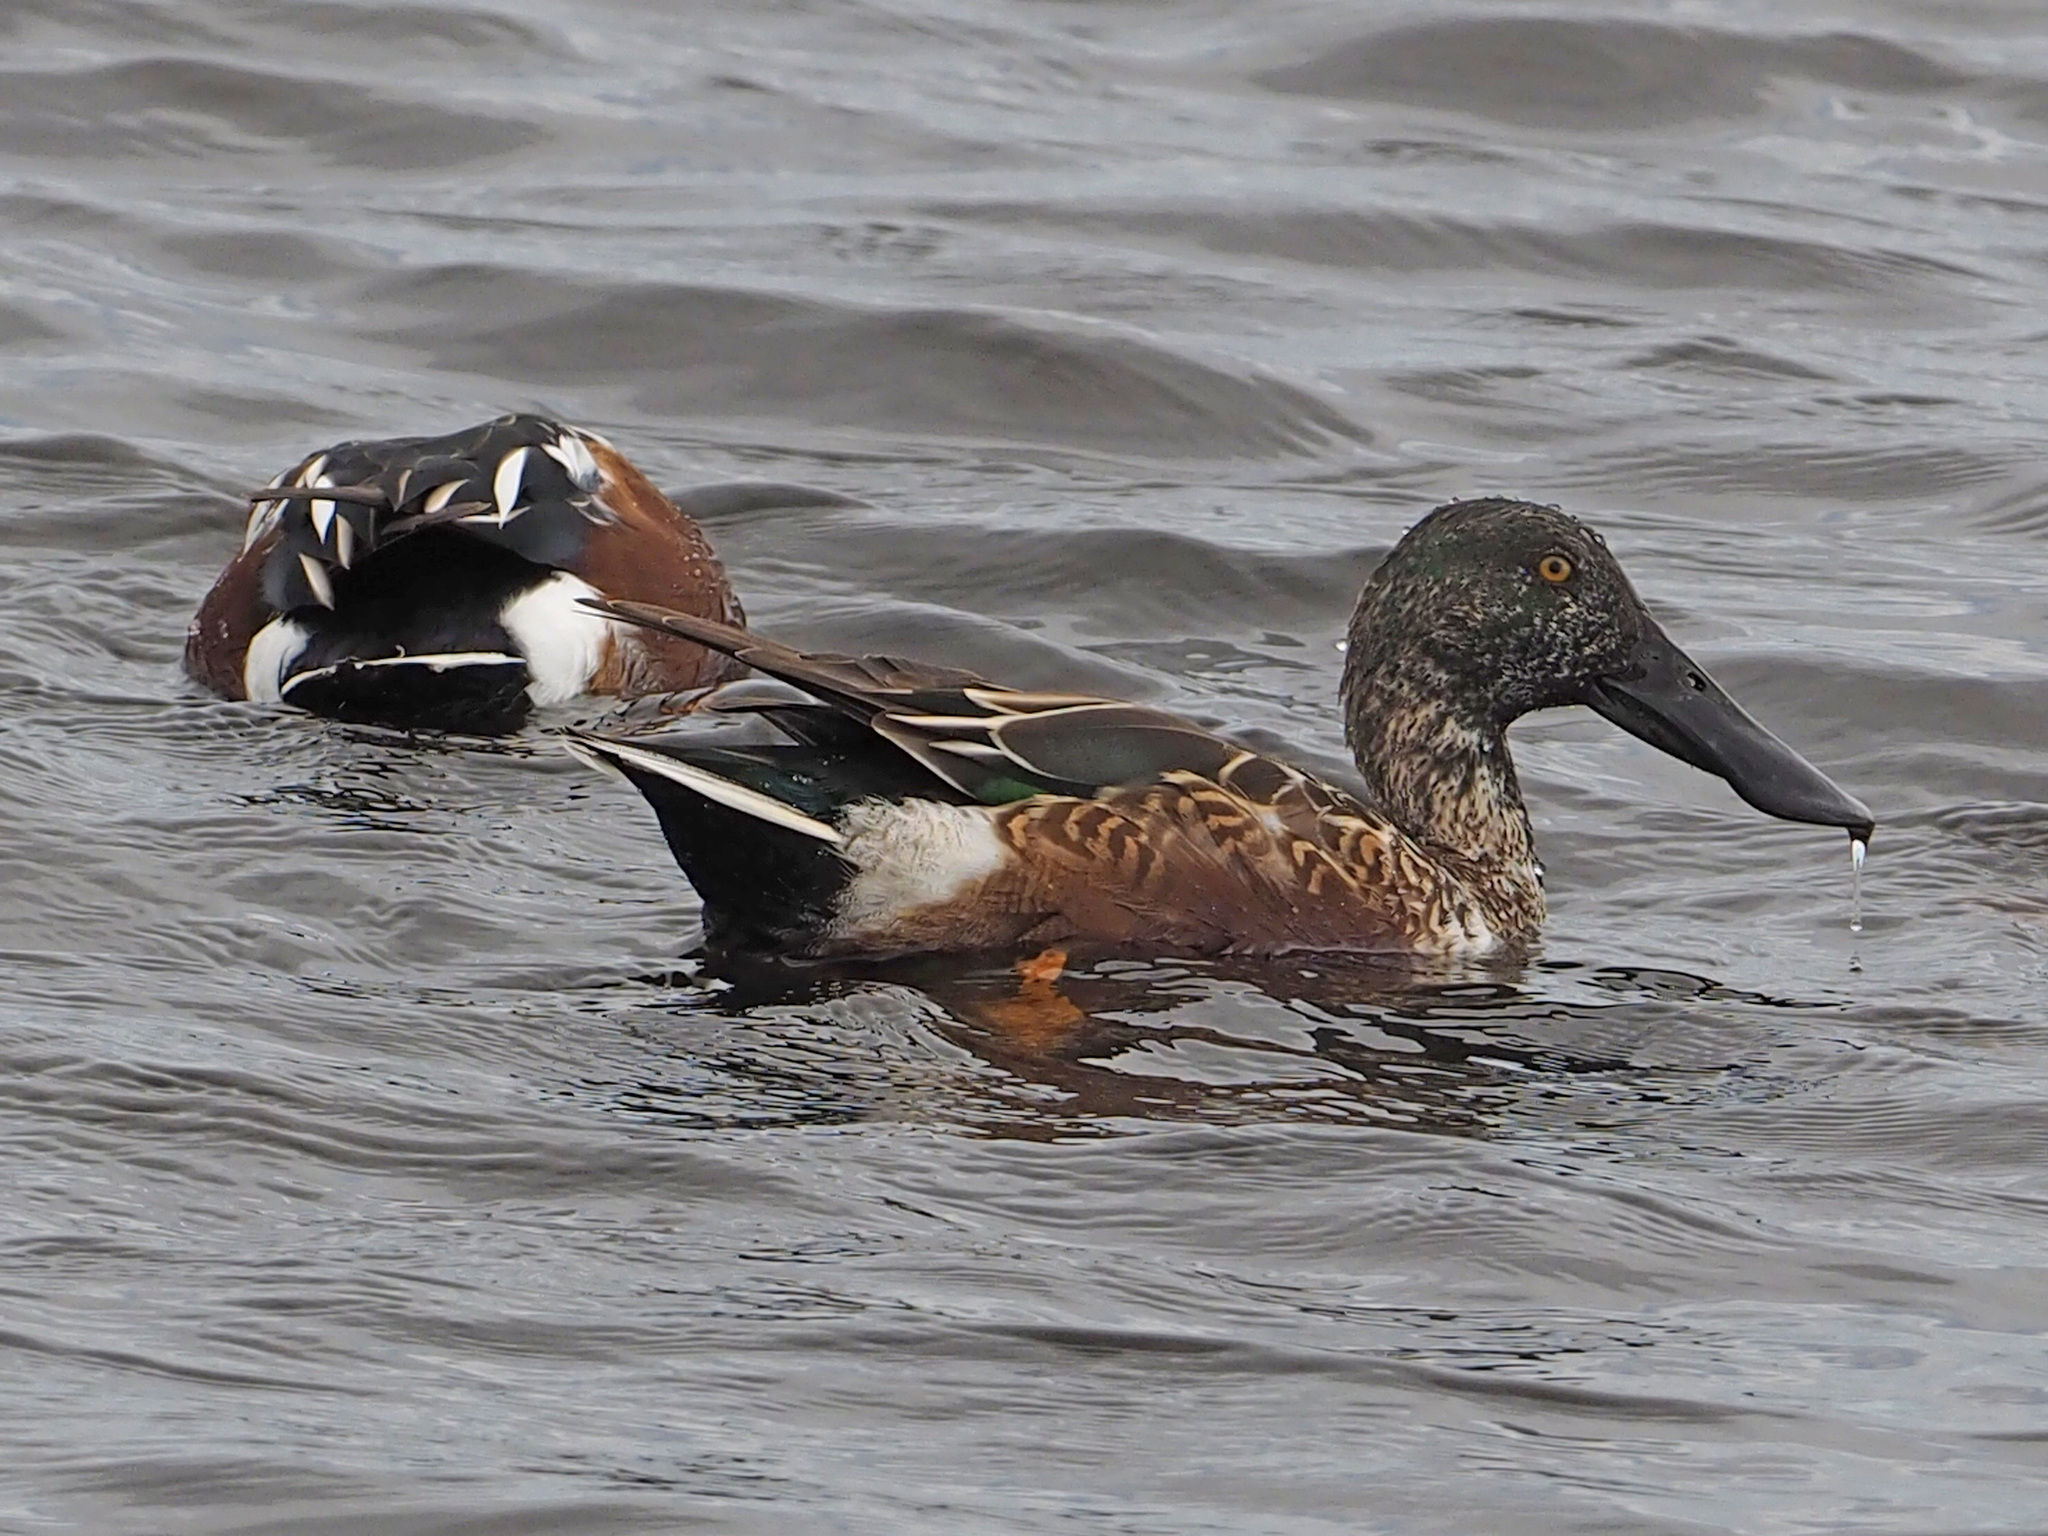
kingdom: Animalia
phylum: Chordata
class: Aves
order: Anseriformes
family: Anatidae
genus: Spatula
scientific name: Spatula clypeata
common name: Northern shoveler
